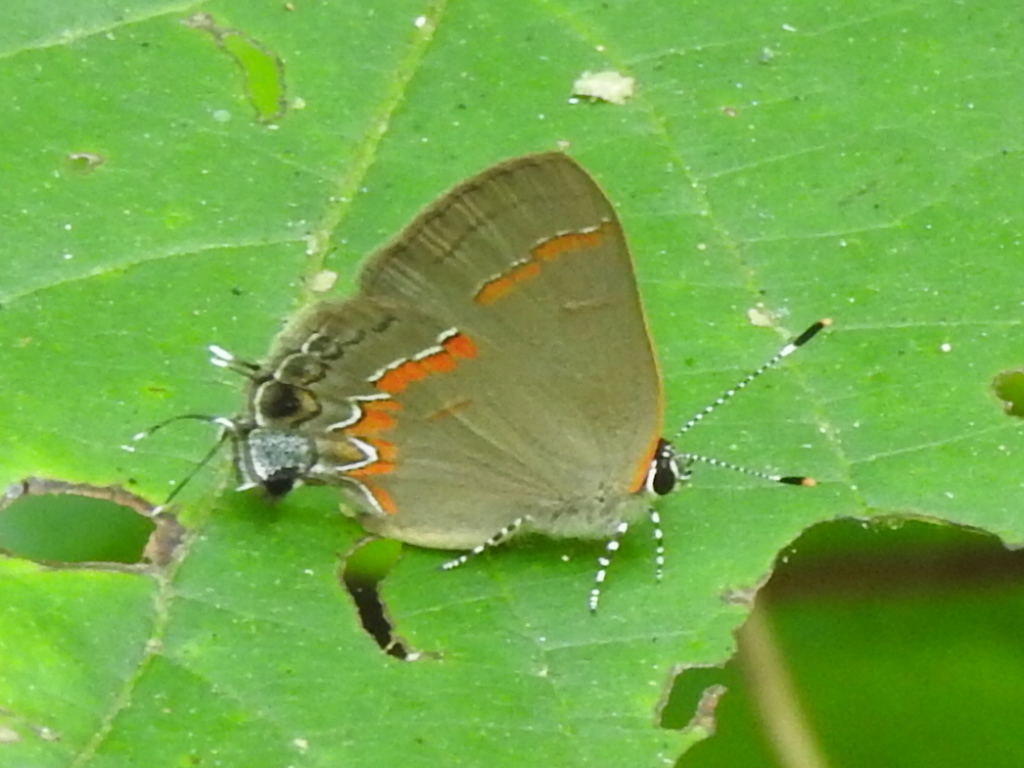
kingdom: Animalia
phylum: Arthropoda
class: Insecta
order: Lepidoptera
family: Lycaenidae
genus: Calycopis
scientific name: Calycopis cecrops
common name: Red-banded hairstreak
